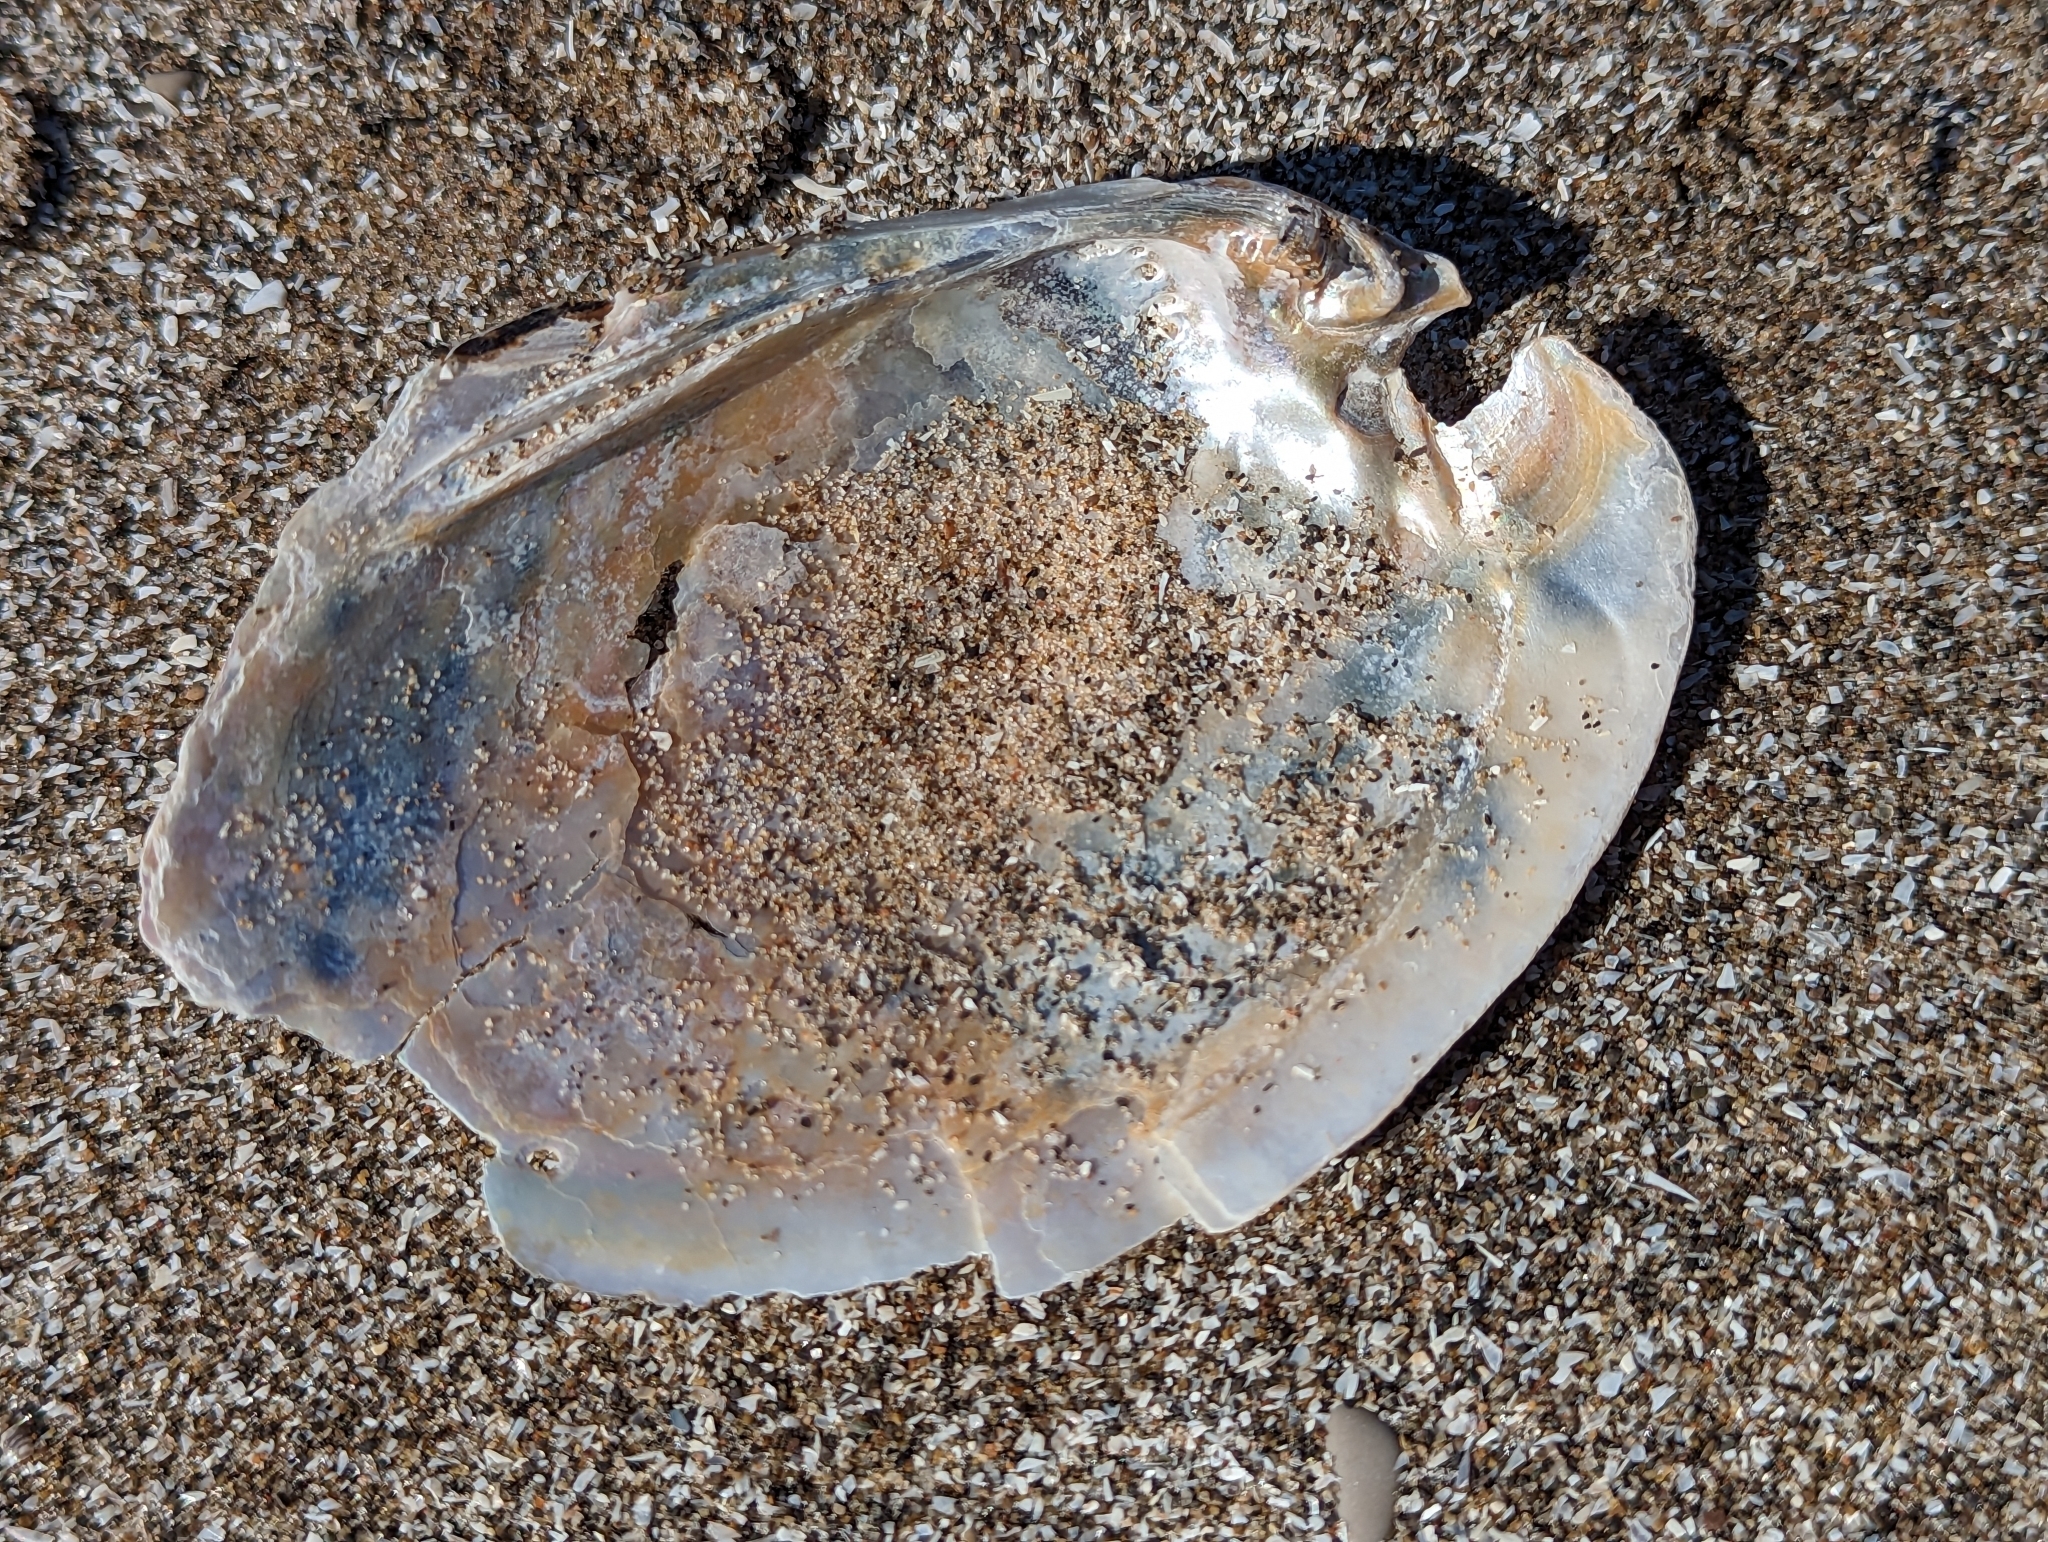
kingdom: Animalia
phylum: Mollusca
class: Bivalvia
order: Unionida
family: Unionidae
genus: Potamilus
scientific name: Potamilus alatus
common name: Pink heelsplitter
